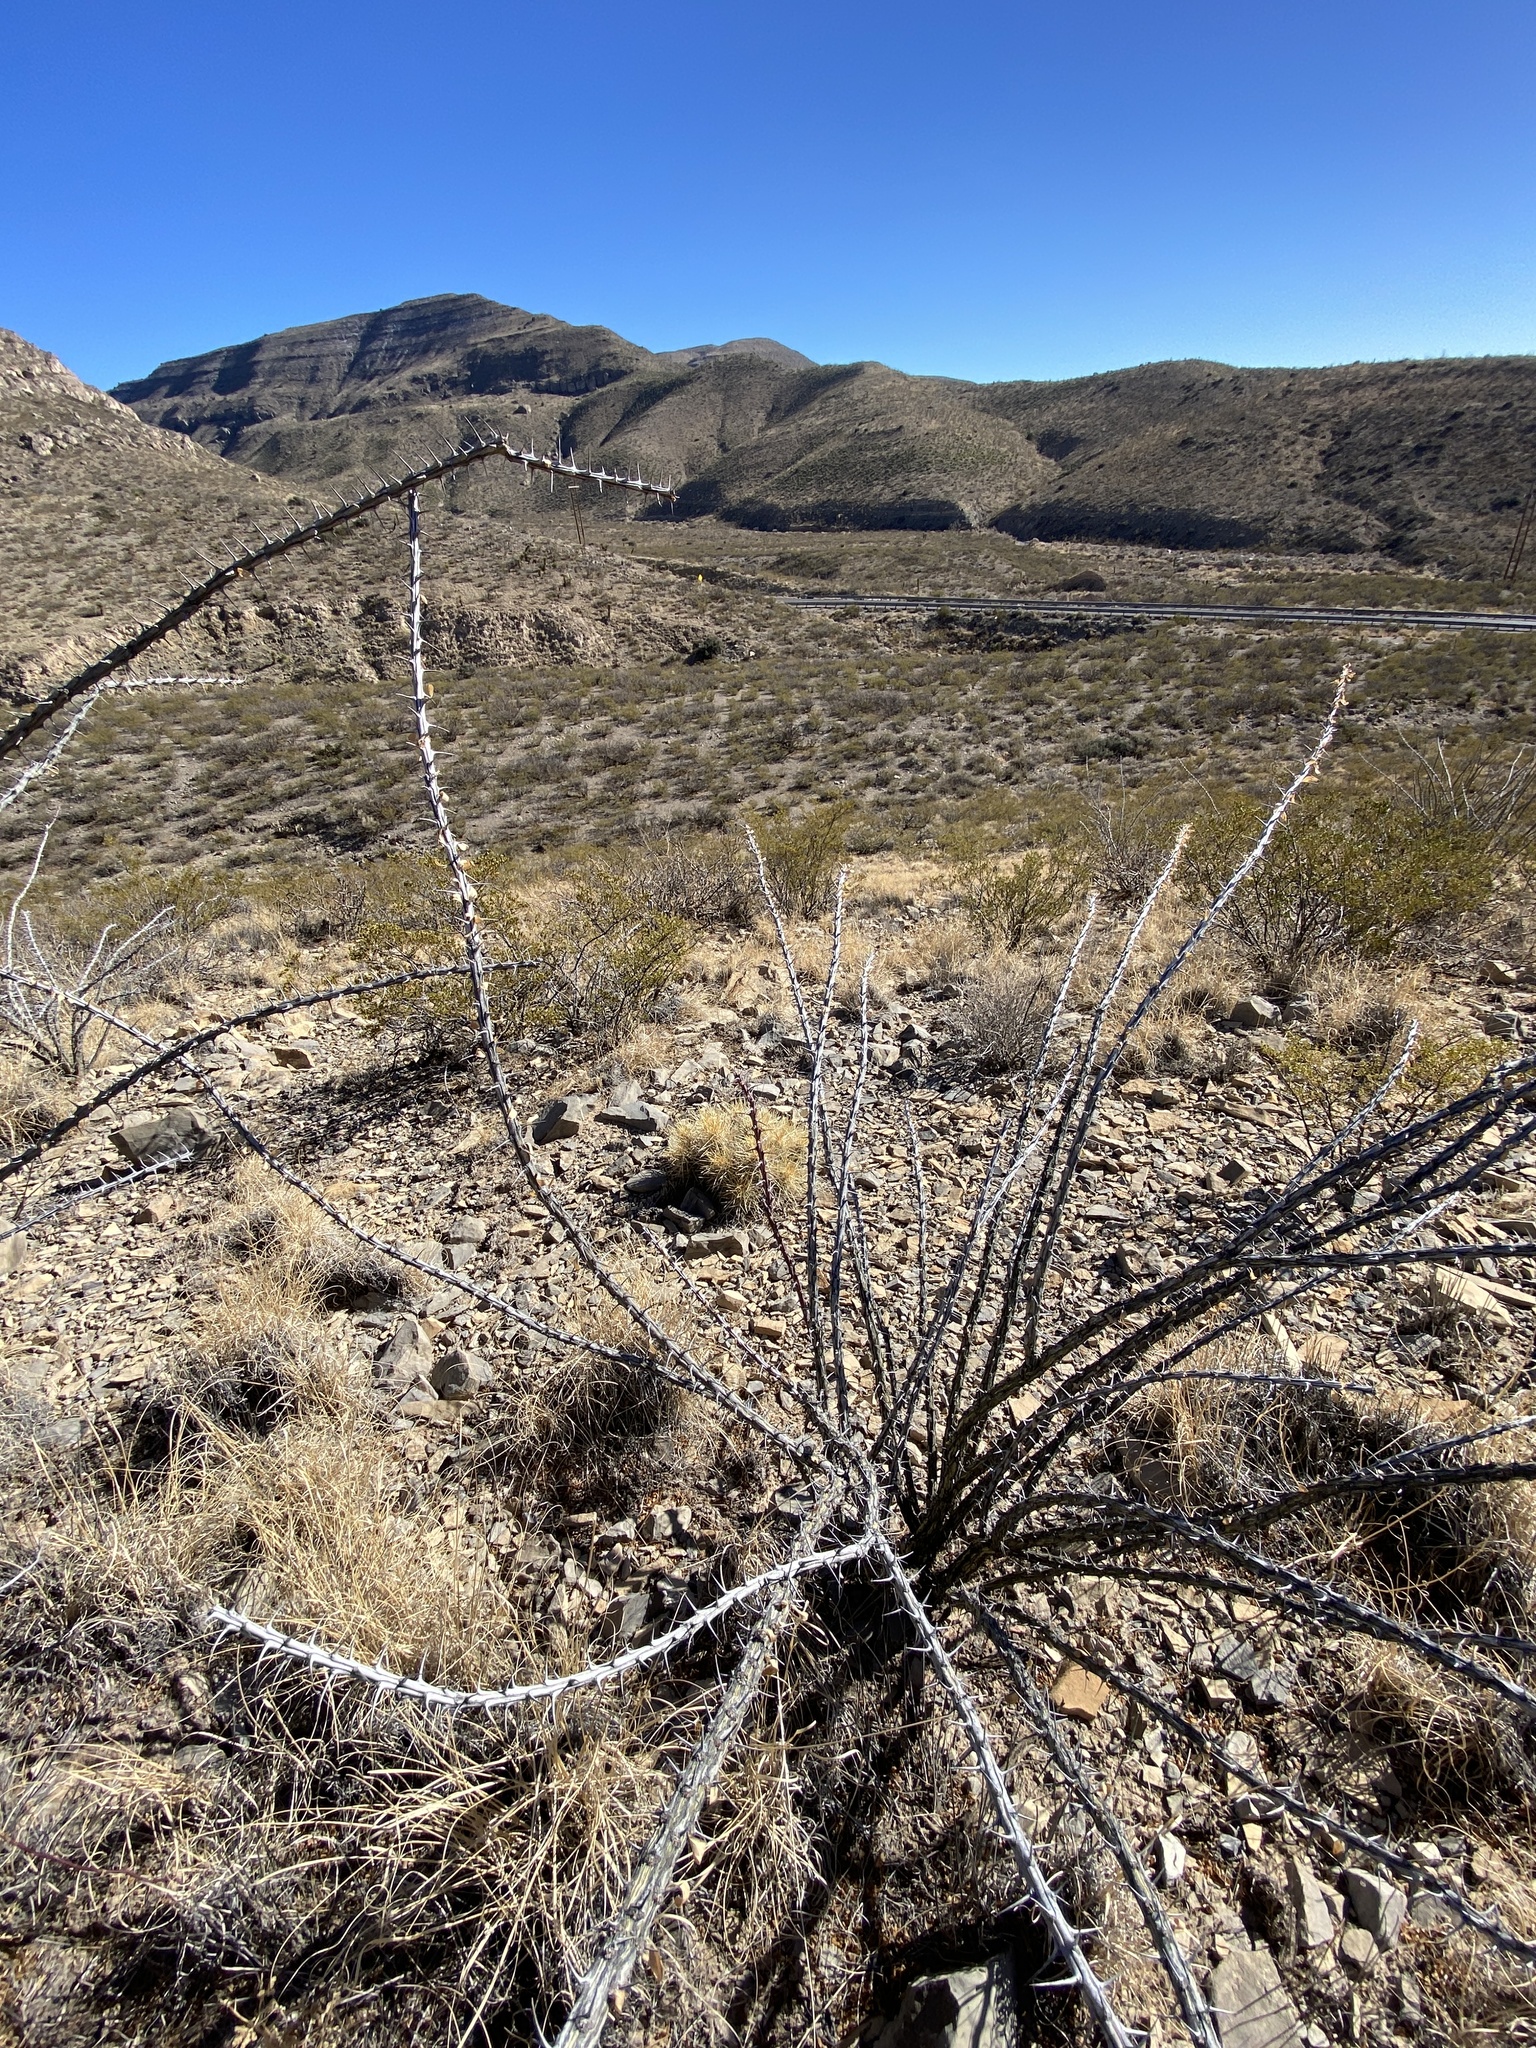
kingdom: Plantae
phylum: Tracheophyta
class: Magnoliopsida
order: Ericales
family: Fouquieriaceae
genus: Fouquieria
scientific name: Fouquieria splendens
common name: Vine-cactus
